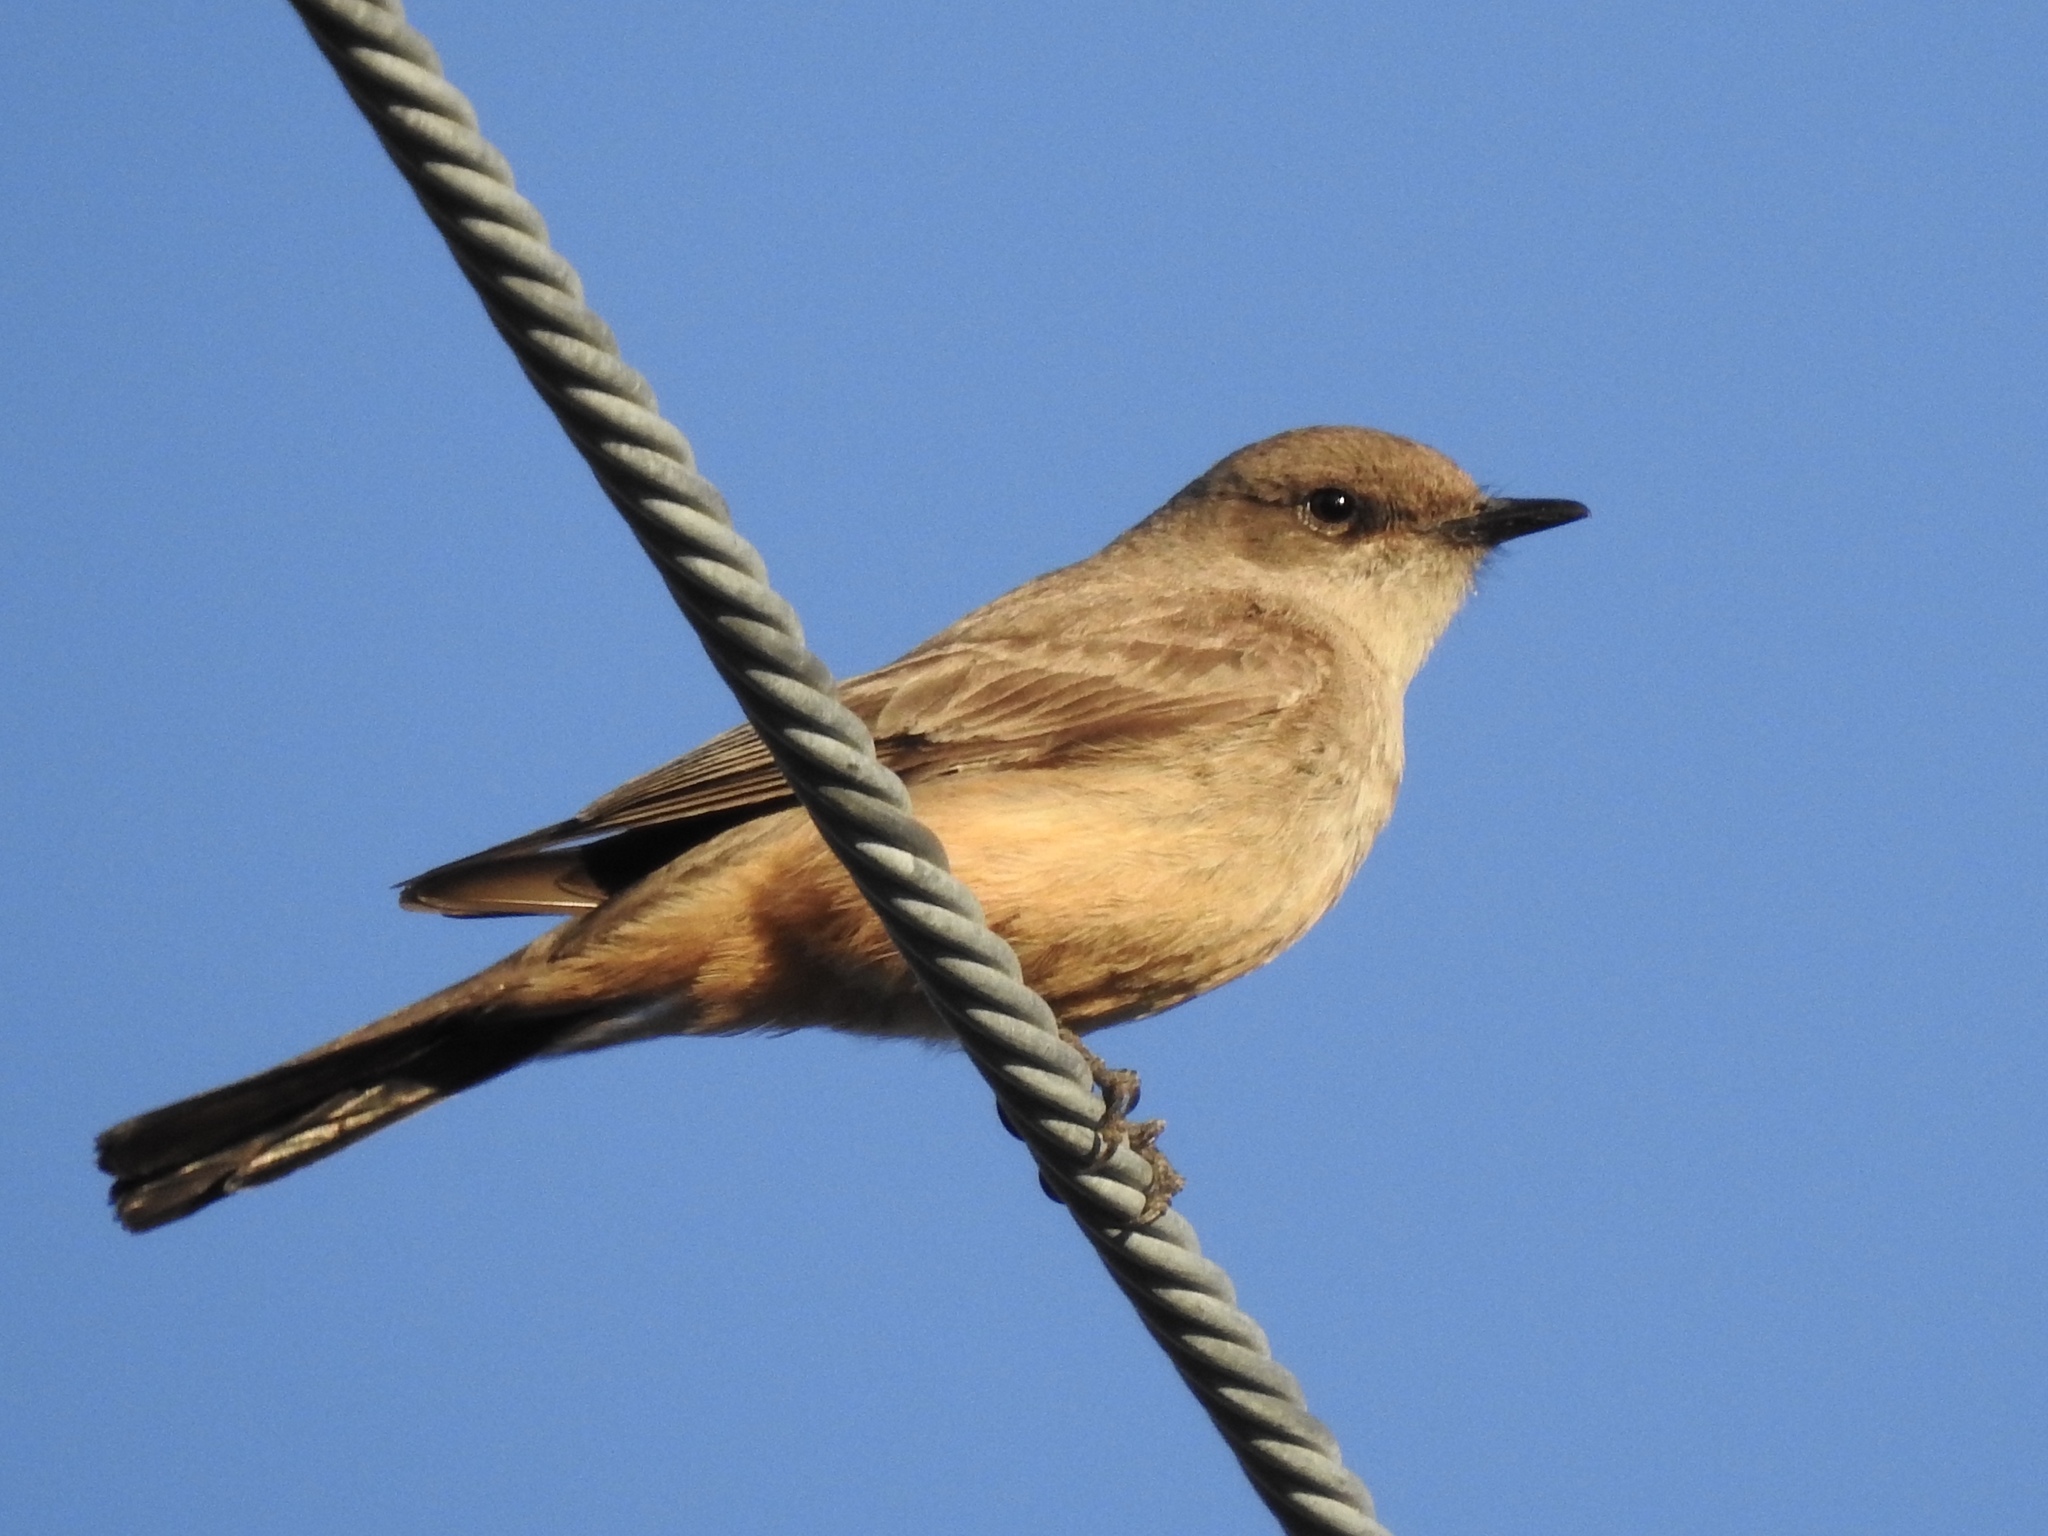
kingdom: Animalia
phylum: Chordata
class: Aves
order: Passeriformes
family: Tyrannidae
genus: Sayornis
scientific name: Sayornis saya
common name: Say's phoebe
